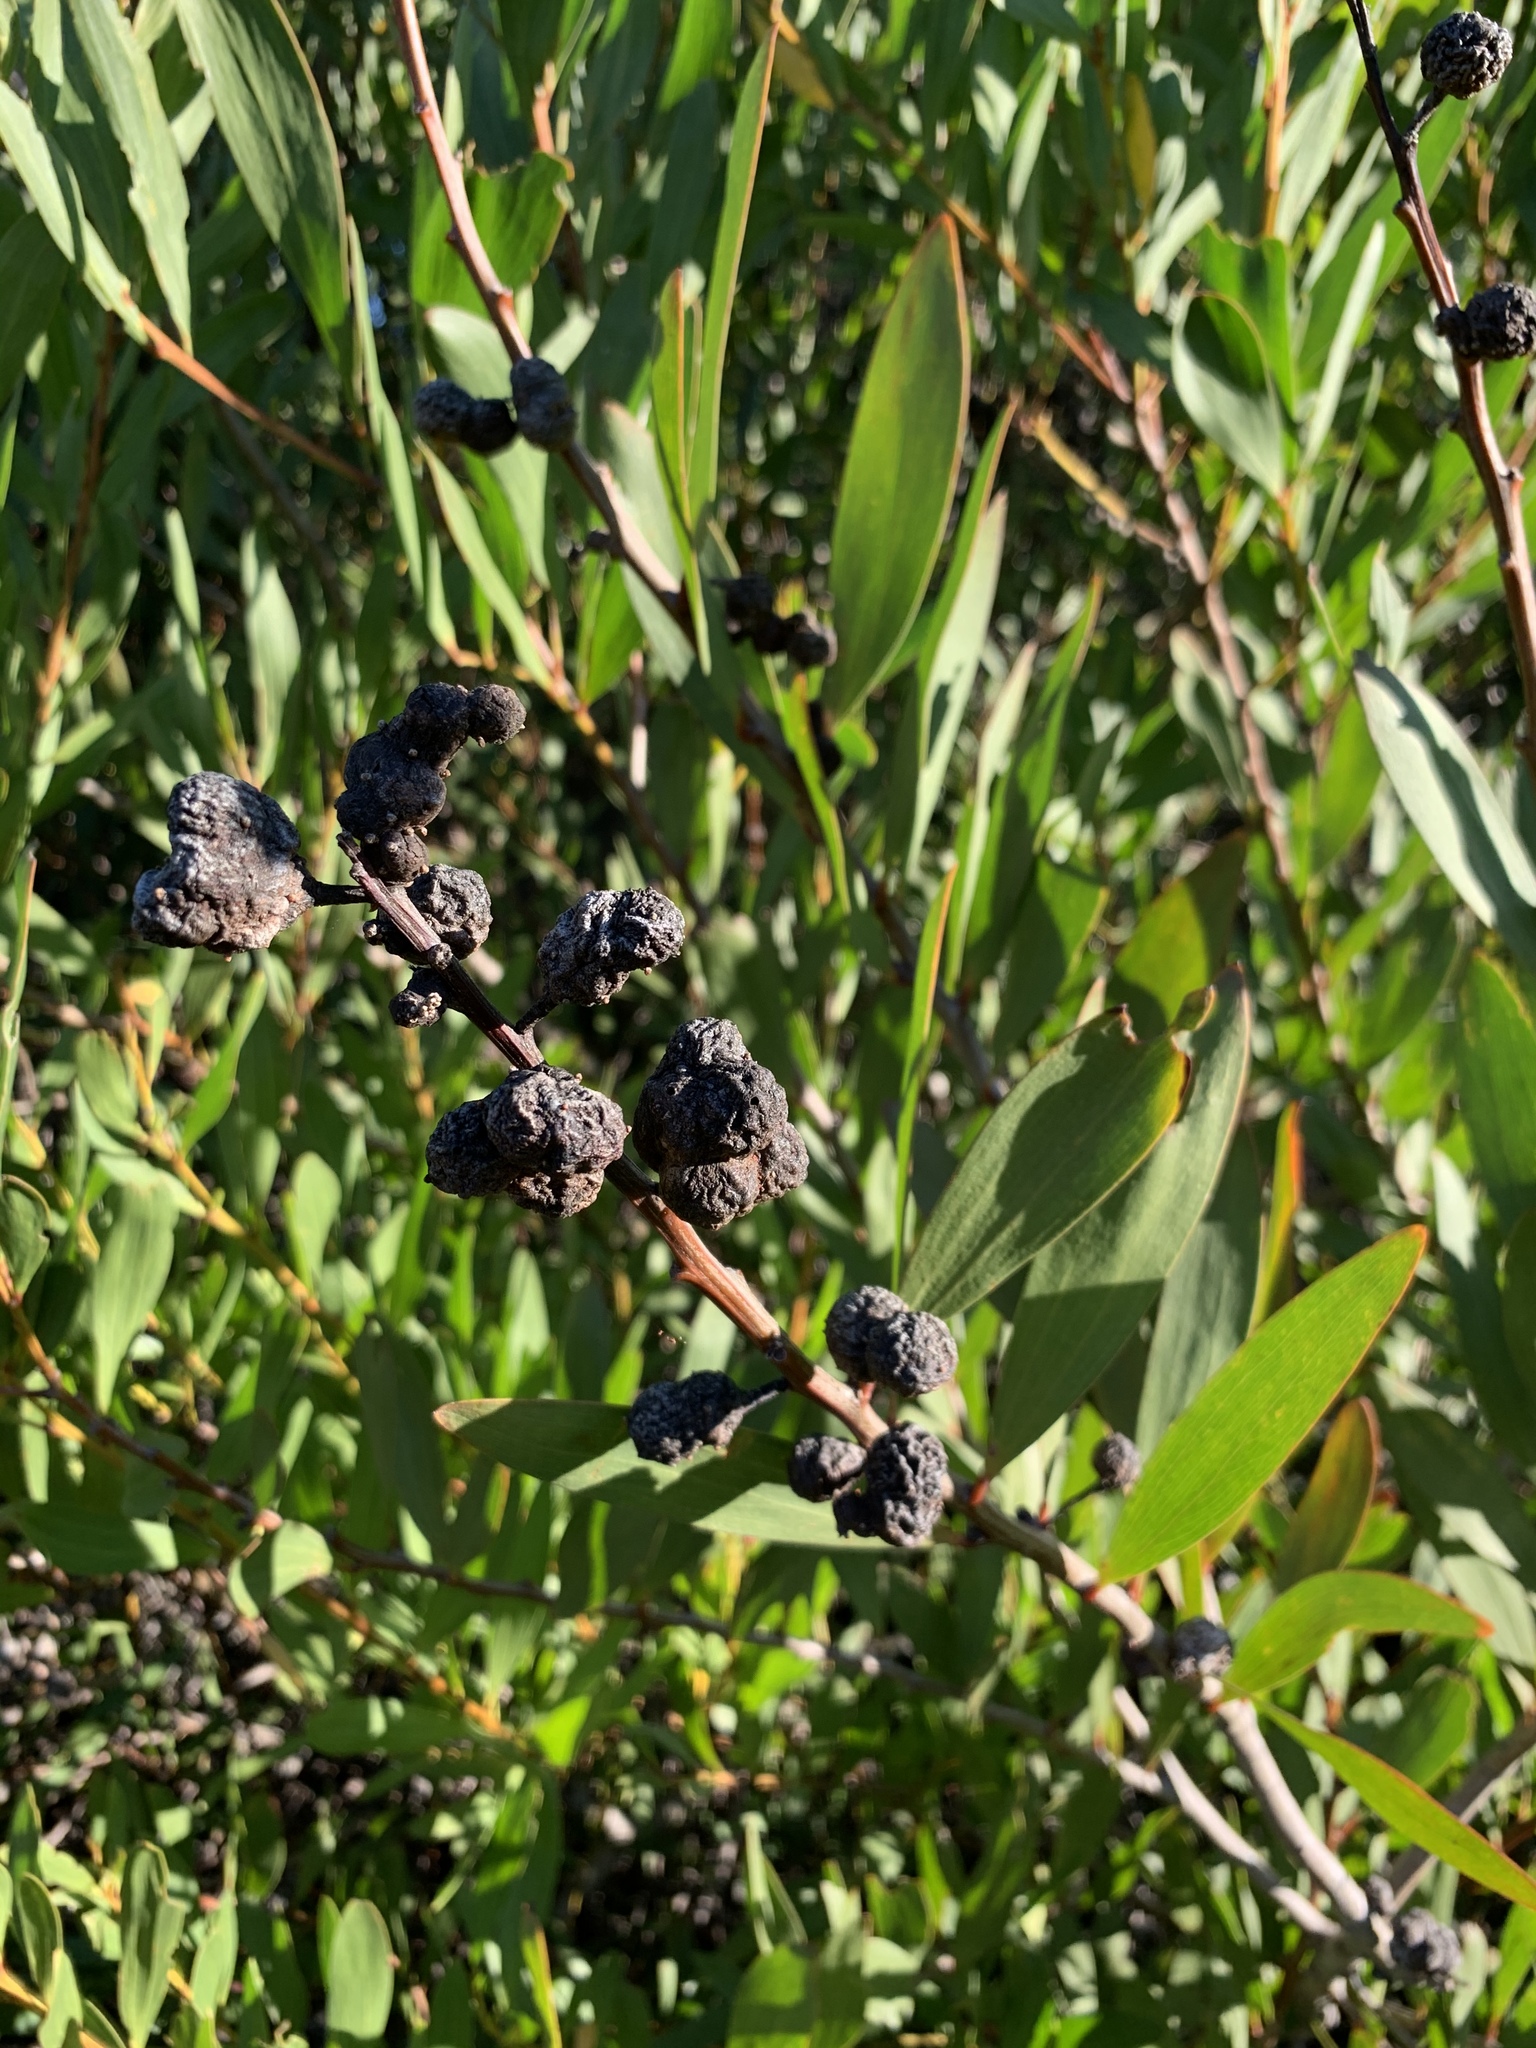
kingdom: Plantae
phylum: Tracheophyta
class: Magnoliopsida
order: Fabales
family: Fabaceae
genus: Acacia
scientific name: Acacia longifolia
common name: Sydney golden wattle
